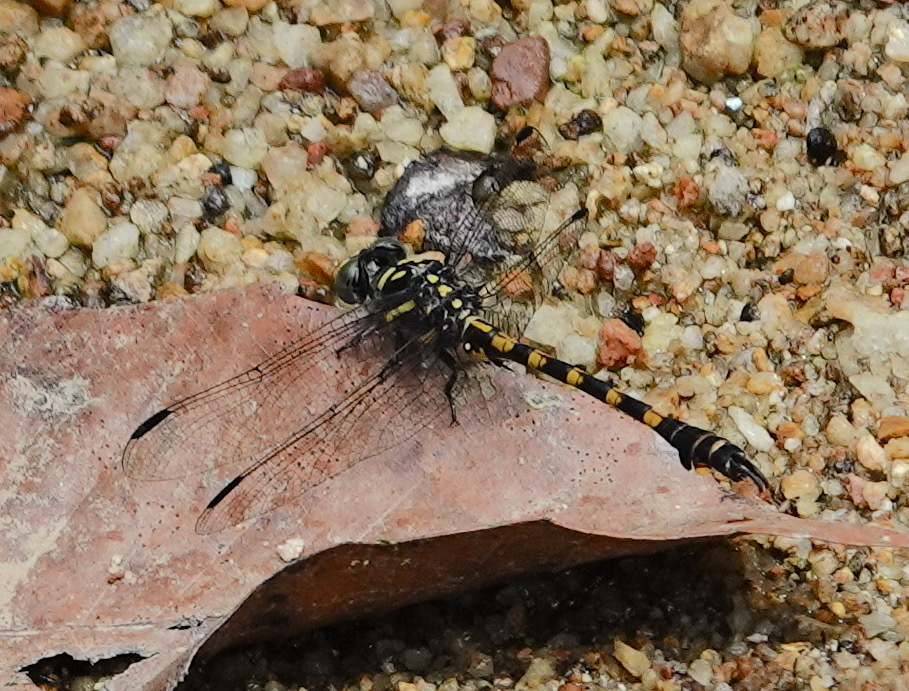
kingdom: Animalia
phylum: Arthropoda
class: Insecta
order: Odonata
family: Gomphidae
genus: Paragomphus
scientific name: Paragomphus capricornis
